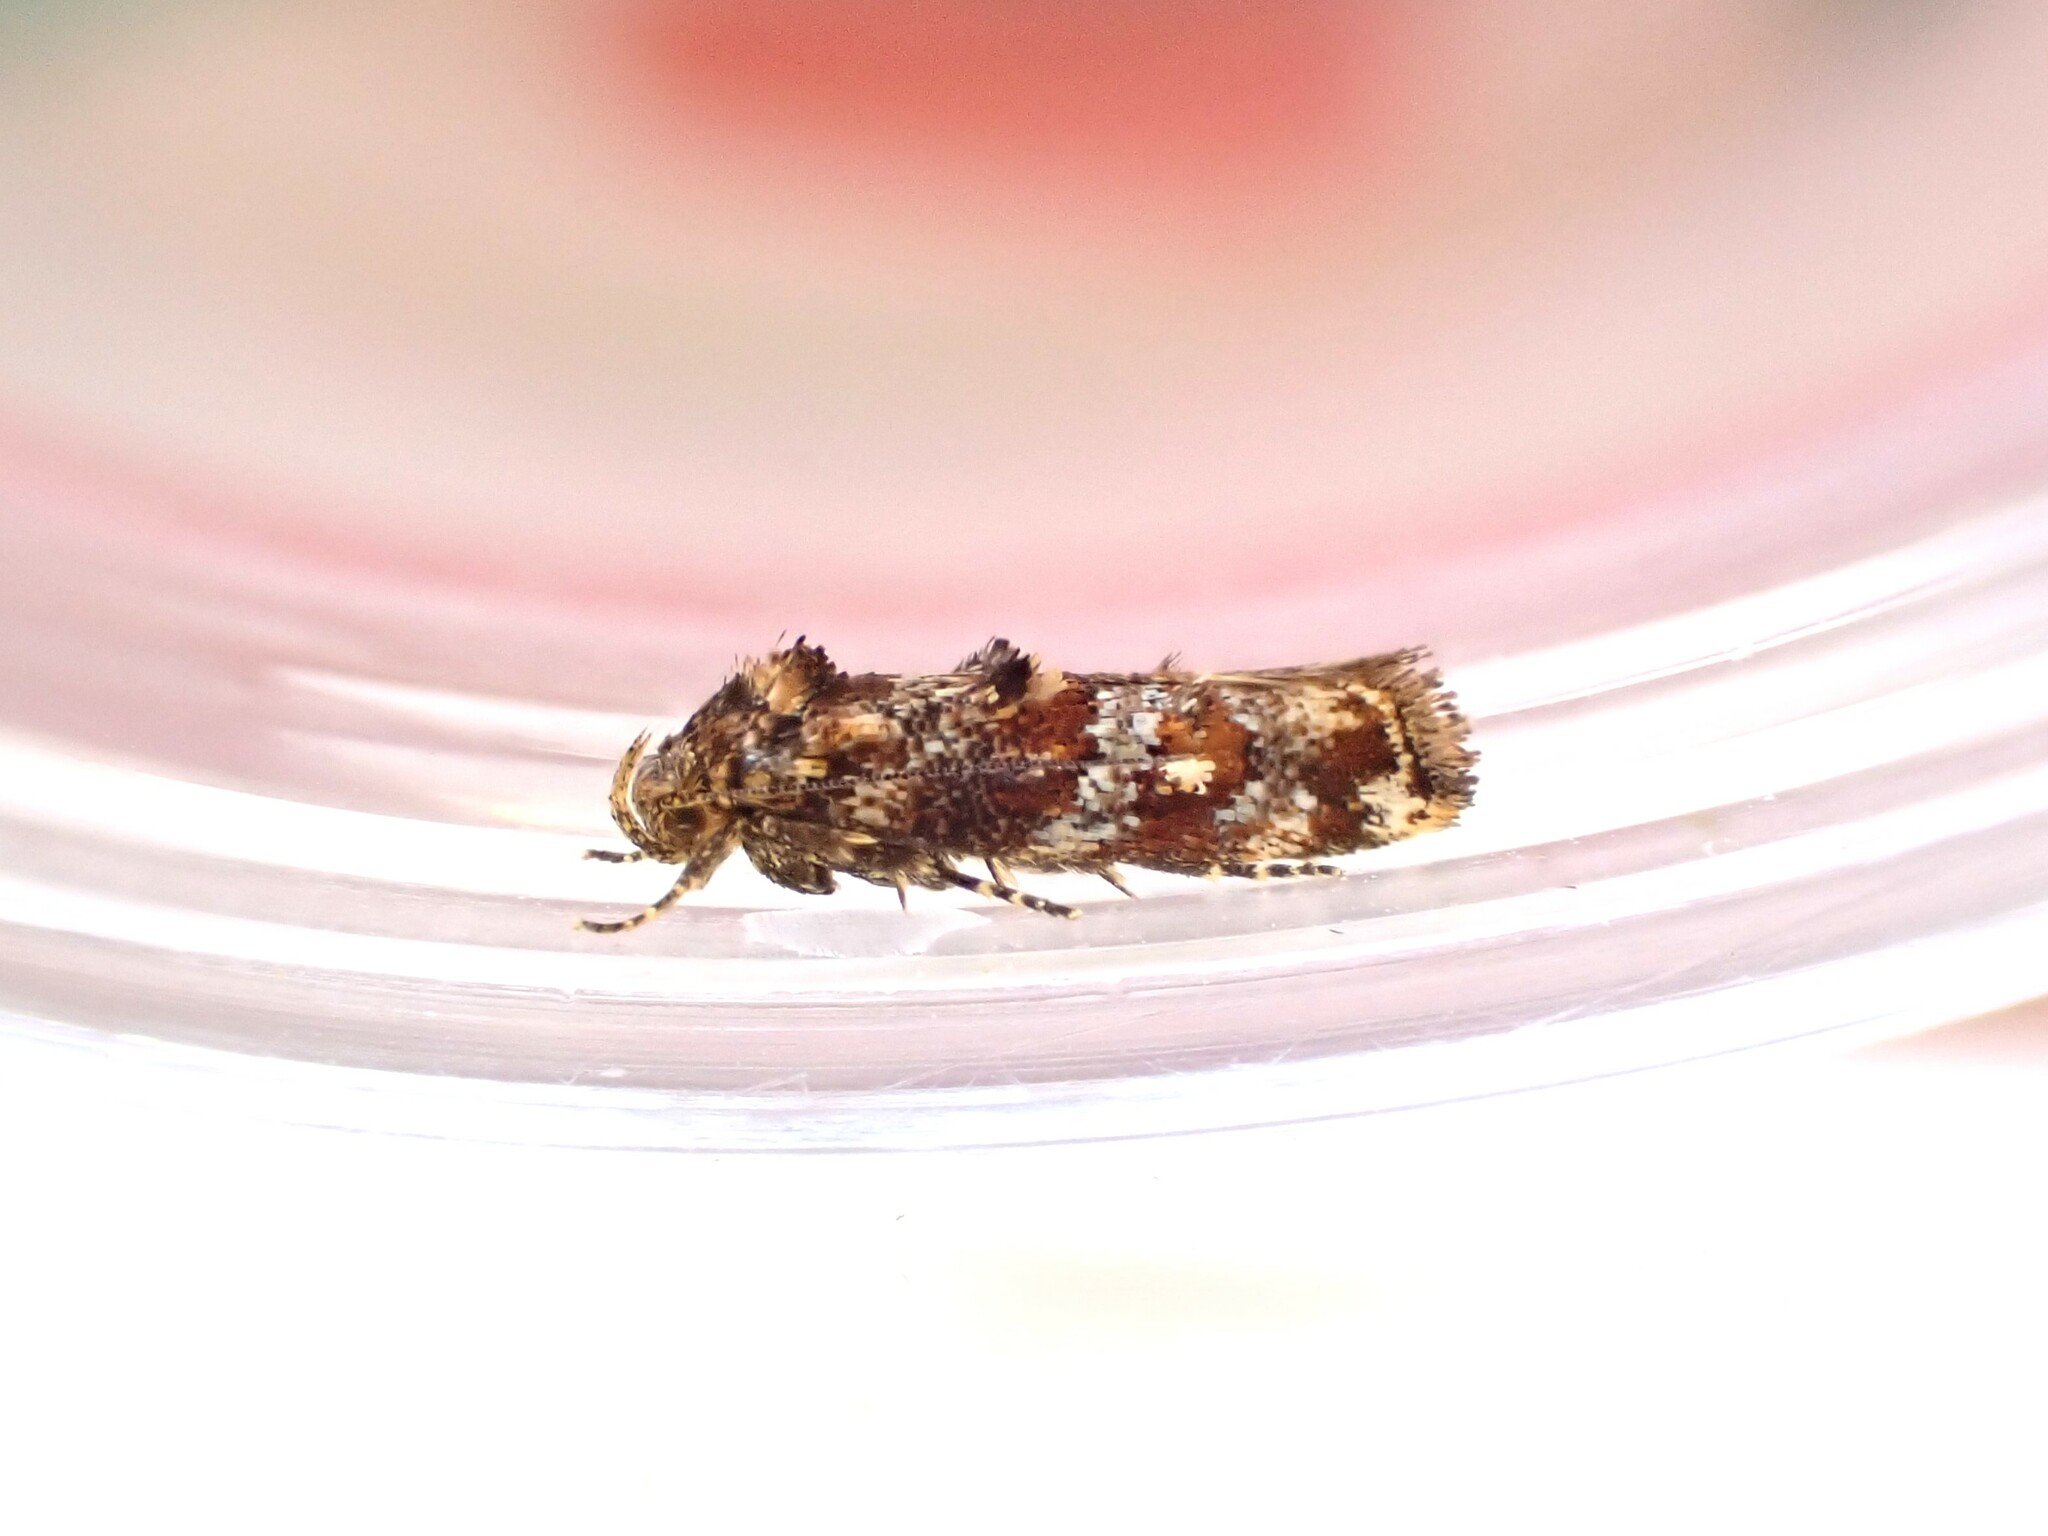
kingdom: Animalia
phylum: Arthropoda
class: Insecta
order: Lepidoptera
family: Oecophoridae
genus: Tingena
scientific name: Tingena eumenopa
